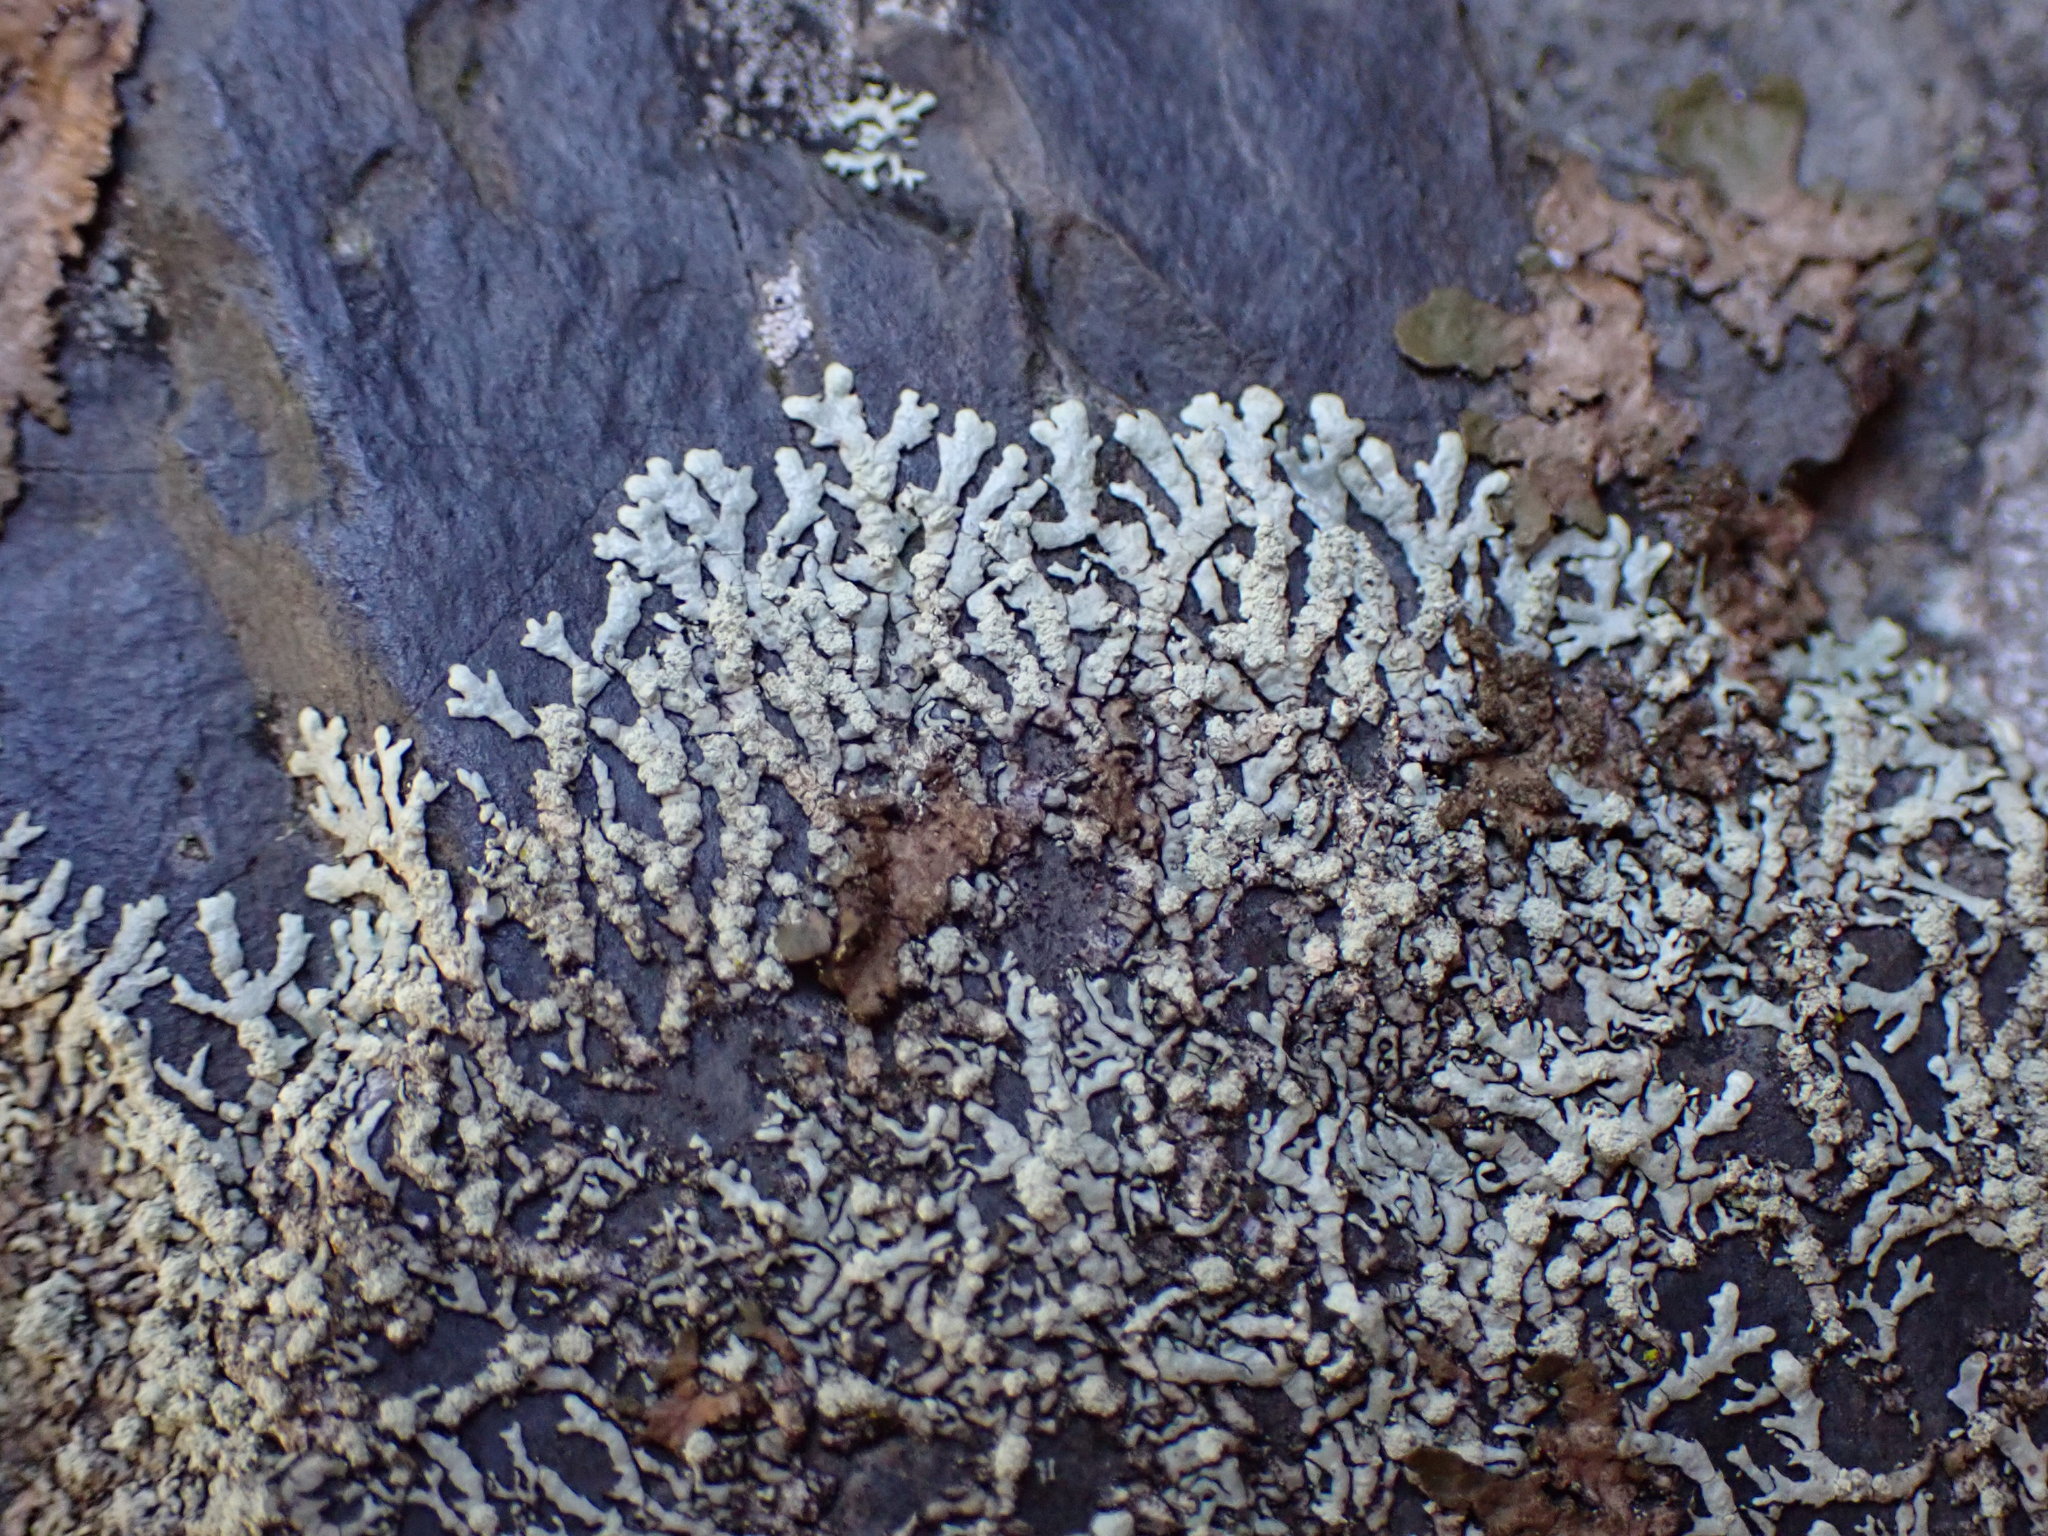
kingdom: Fungi
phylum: Ascomycota
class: Lecanoromycetes
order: Lecanorales
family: Parmeliaceae
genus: Xanthoparmelia
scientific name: Xanthoparmelia mougeotii
